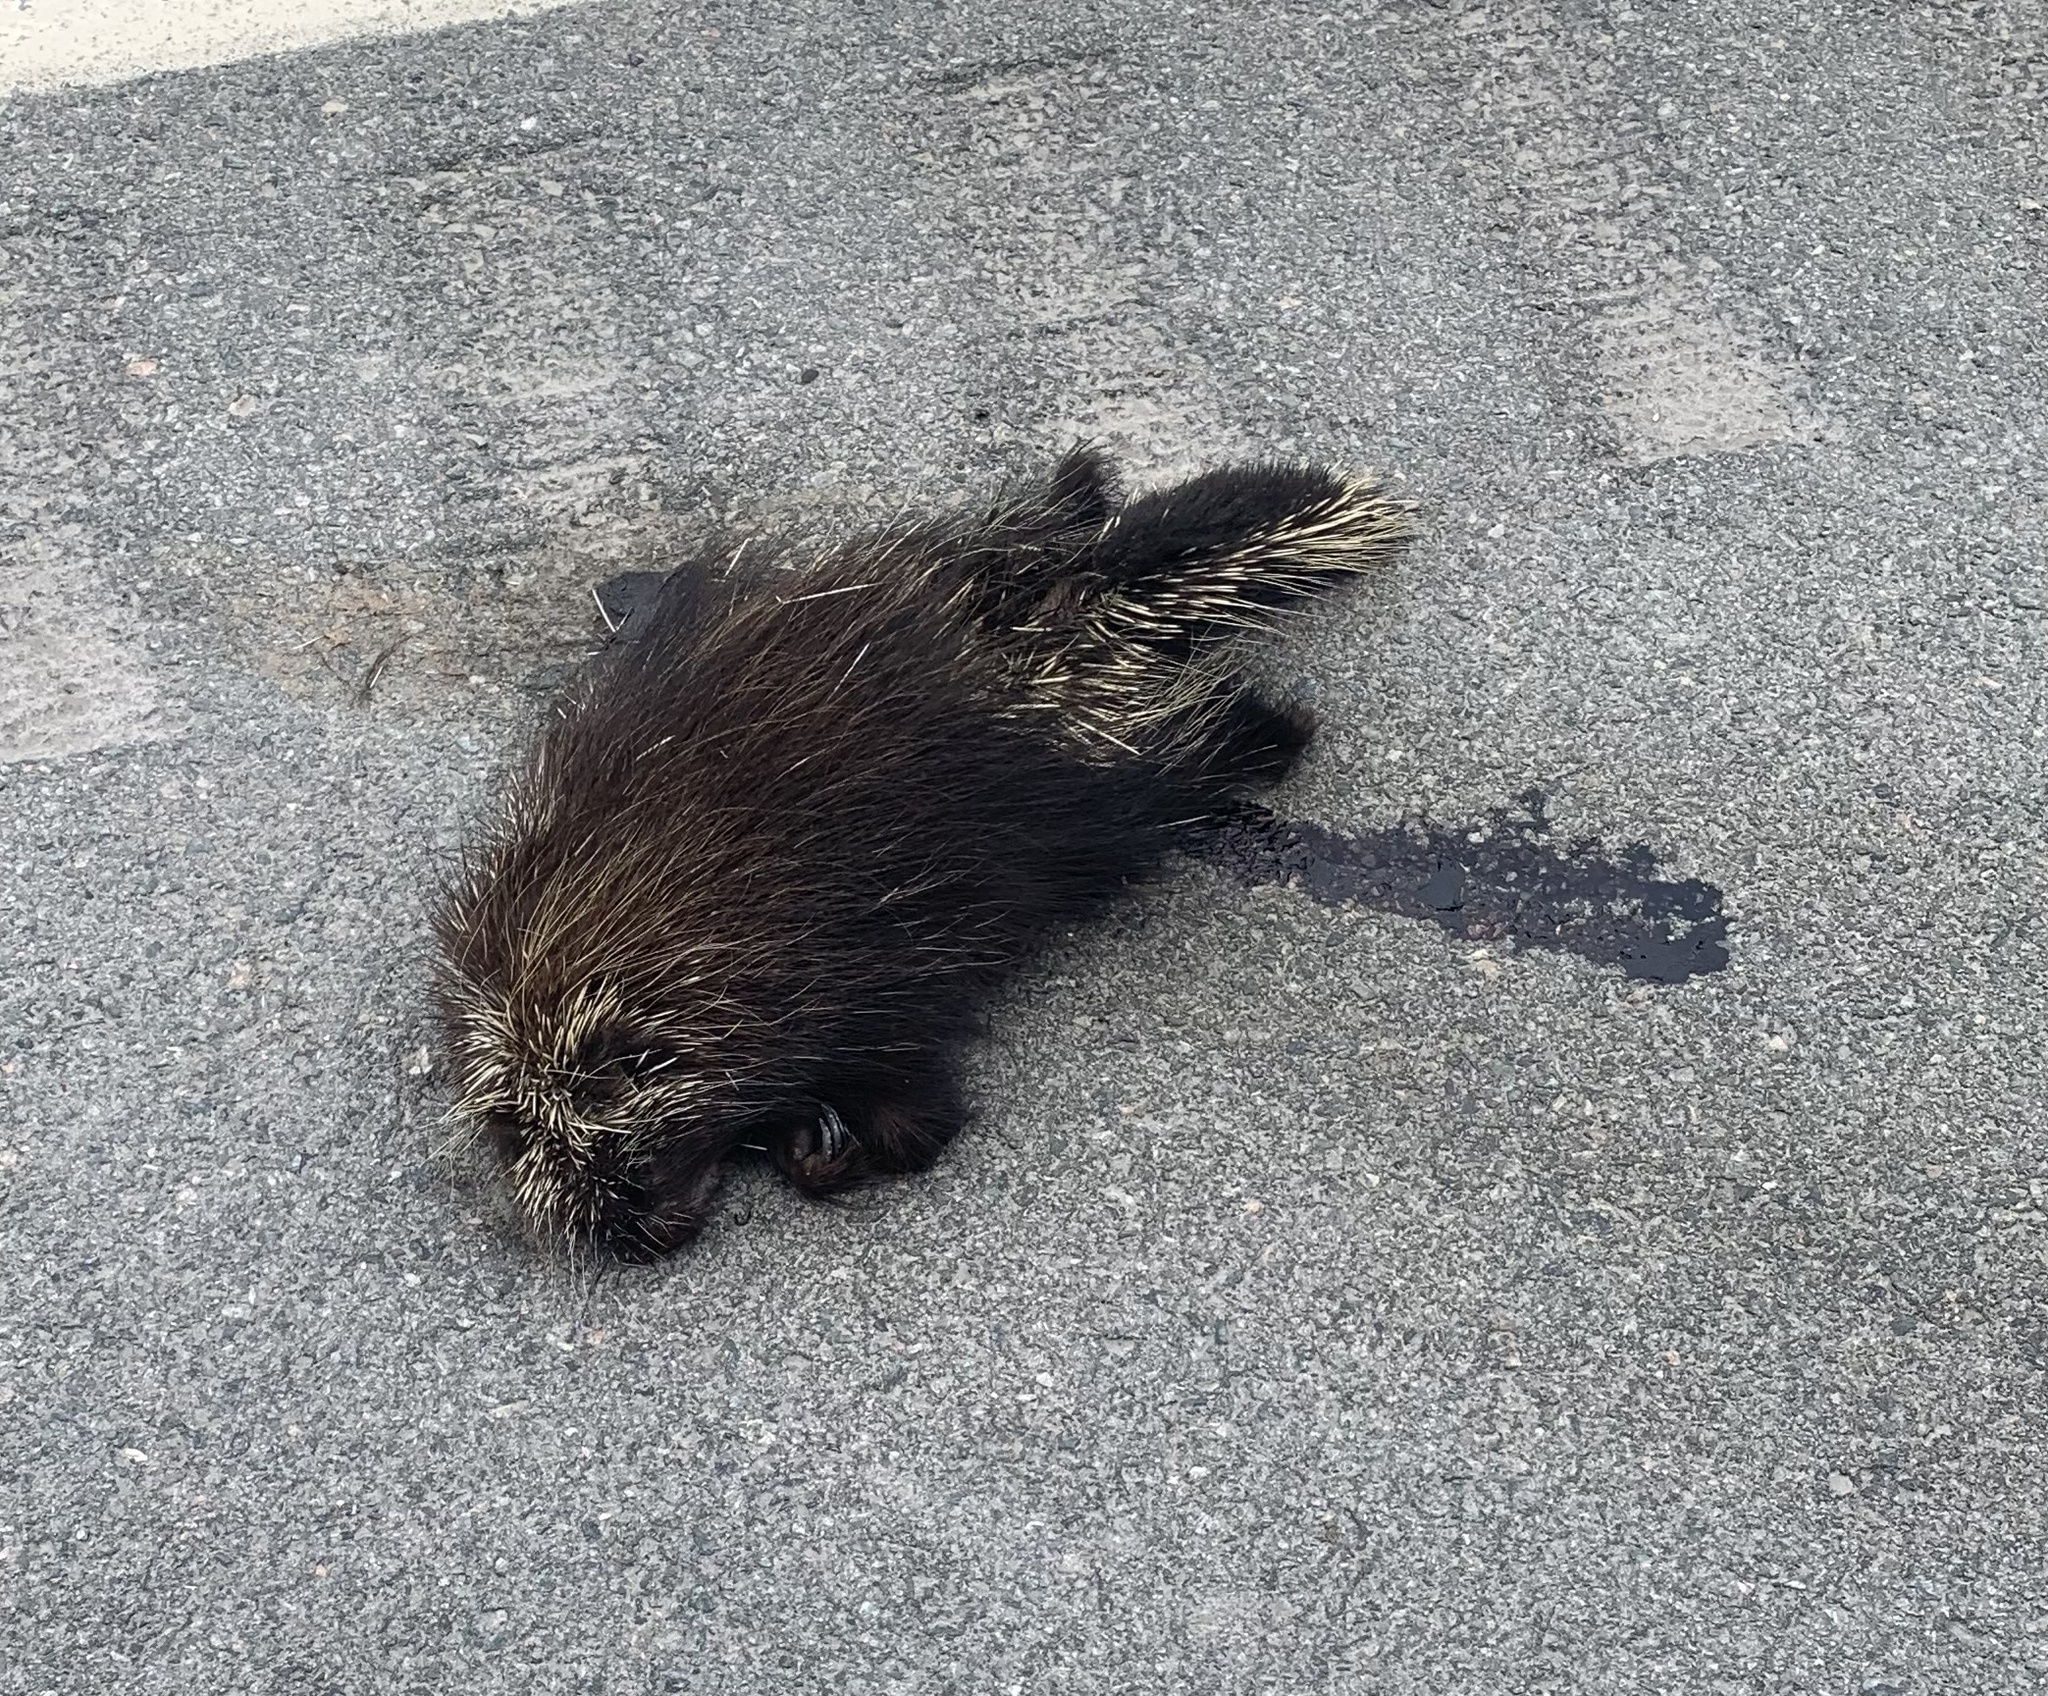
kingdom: Animalia
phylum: Chordata
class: Mammalia
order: Rodentia
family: Erethizontidae
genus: Erethizon
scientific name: Erethizon dorsatus
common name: North american porcupine
